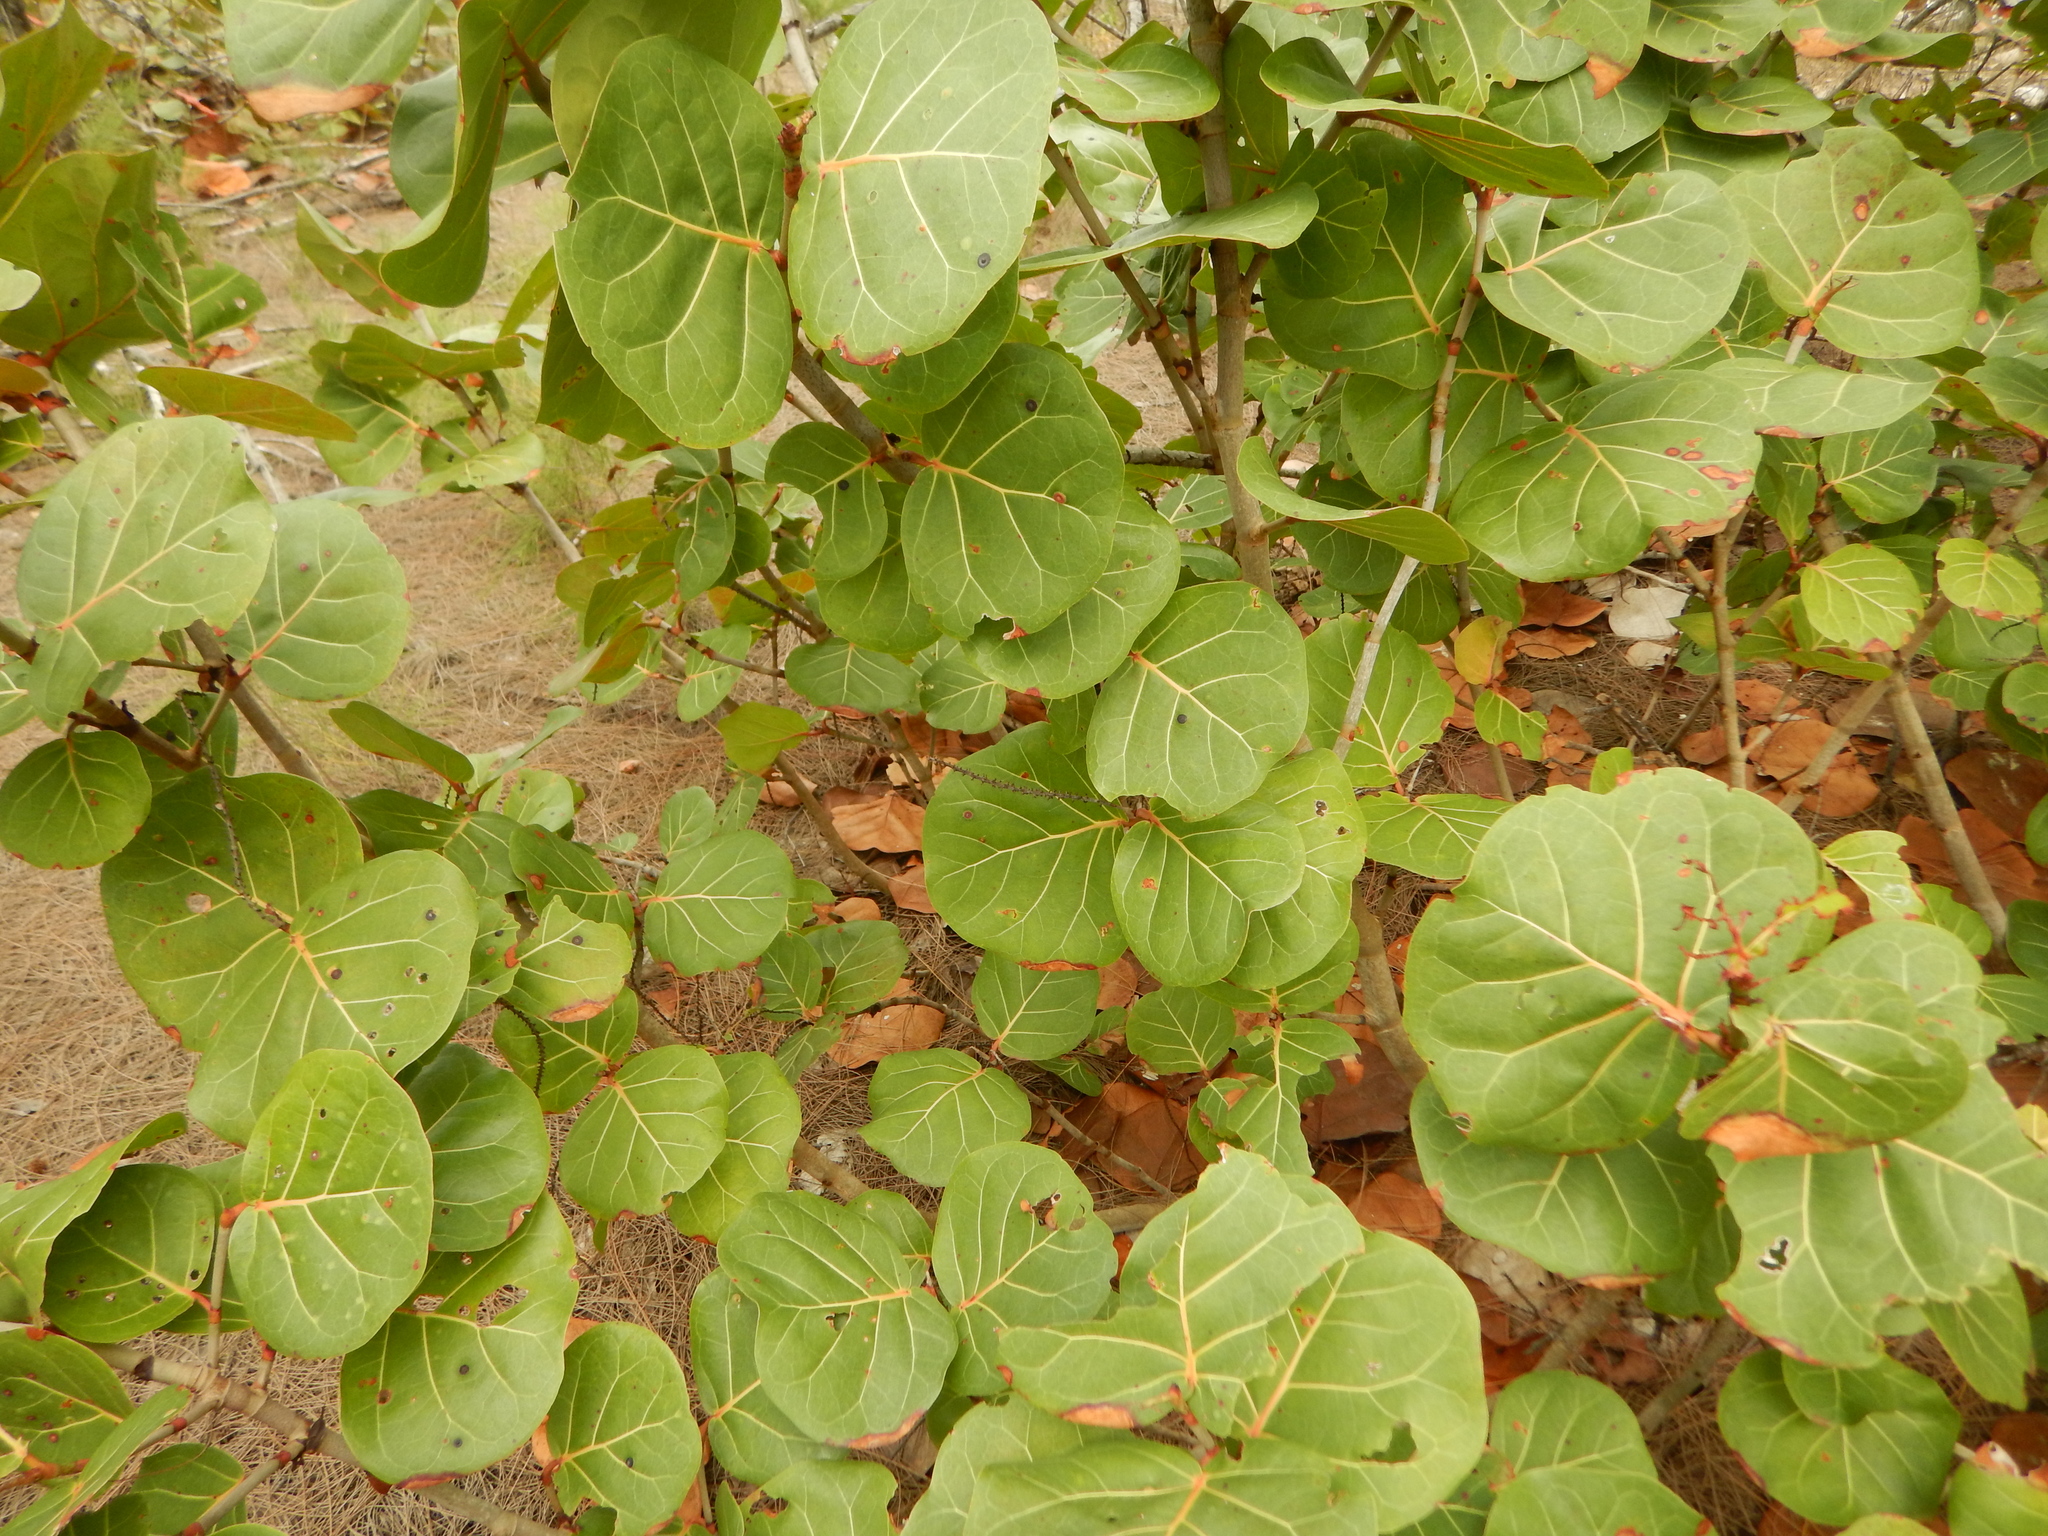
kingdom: Plantae
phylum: Tracheophyta
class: Magnoliopsida
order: Caryophyllales
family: Polygonaceae
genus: Coccoloba
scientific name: Coccoloba uvifera
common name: Seagrape
